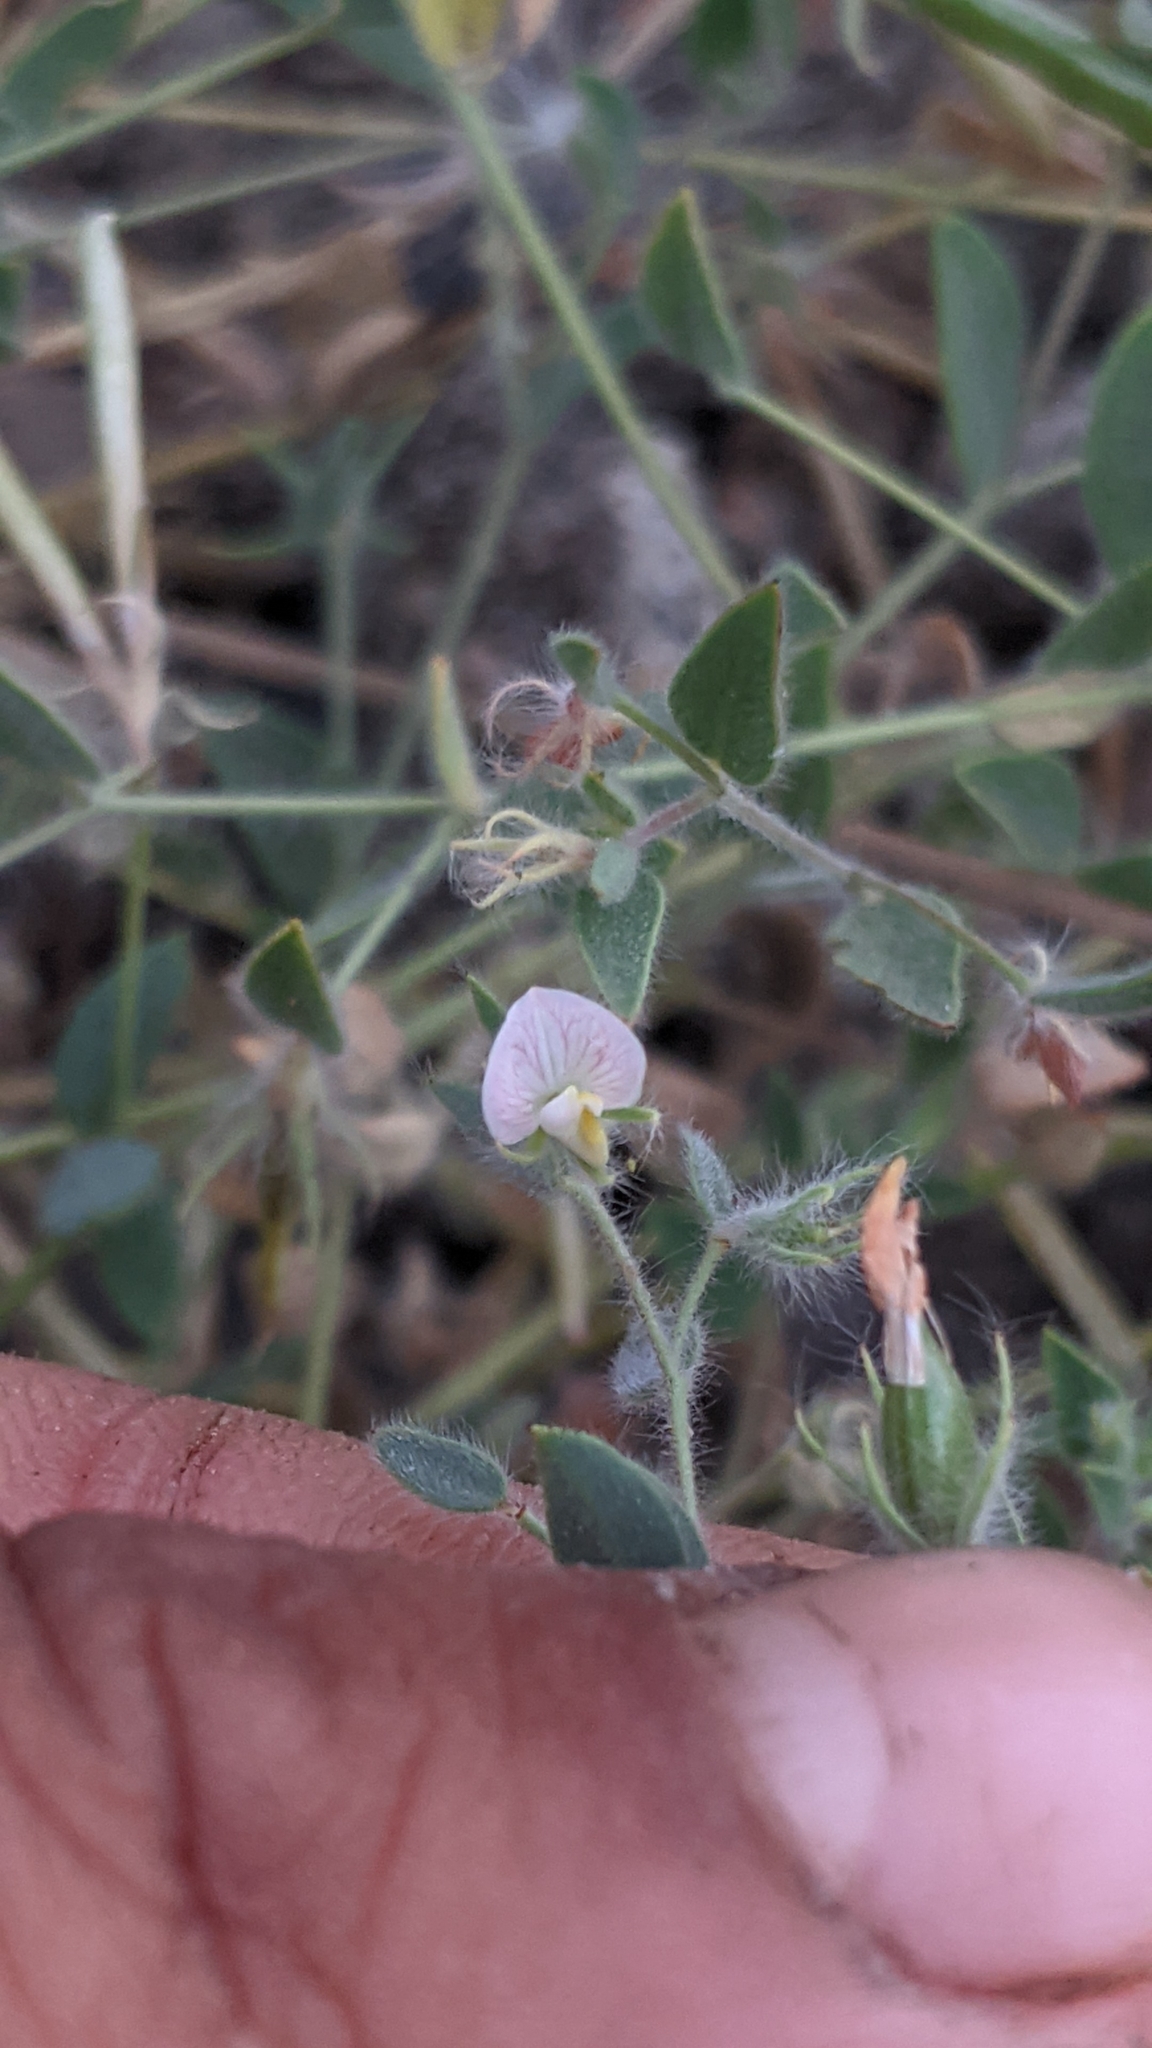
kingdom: Plantae
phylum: Tracheophyta
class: Magnoliopsida
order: Fabales
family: Fabaceae
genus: Acmispon
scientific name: Acmispon americanus
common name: American bird's-foot trefoil
